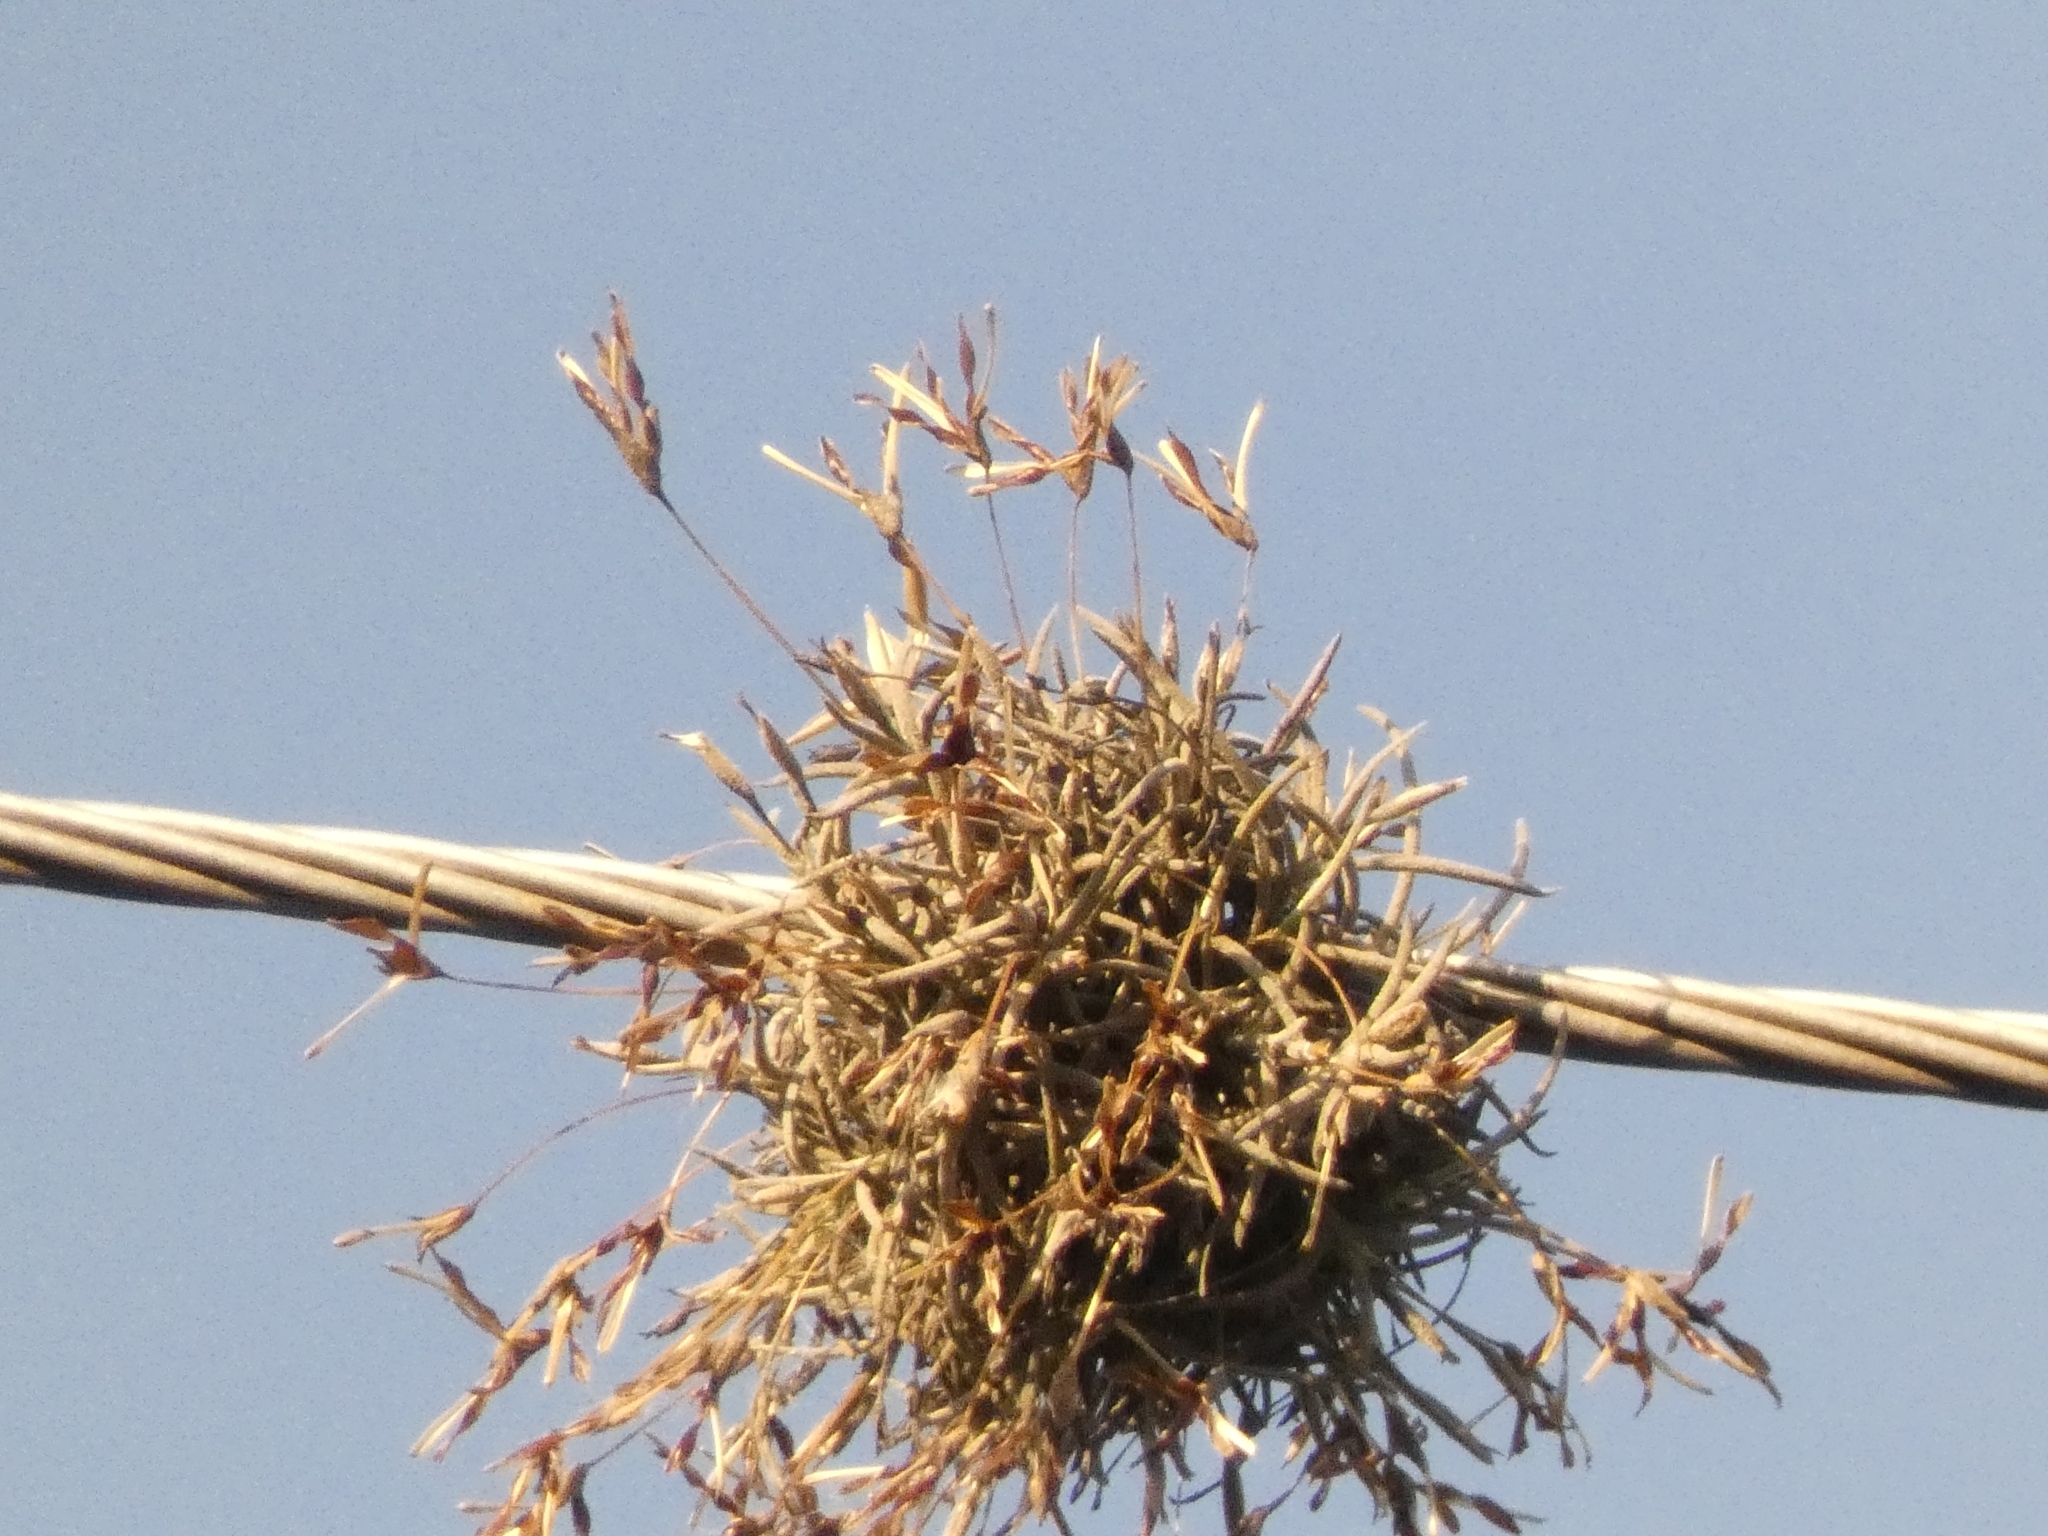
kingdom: Plantae
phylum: Tracheophyta
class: Liliopsida
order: Poales
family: Bromeliaceae
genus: Tillandsia
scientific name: Tillandsia recurvata
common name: Small ballmoss
